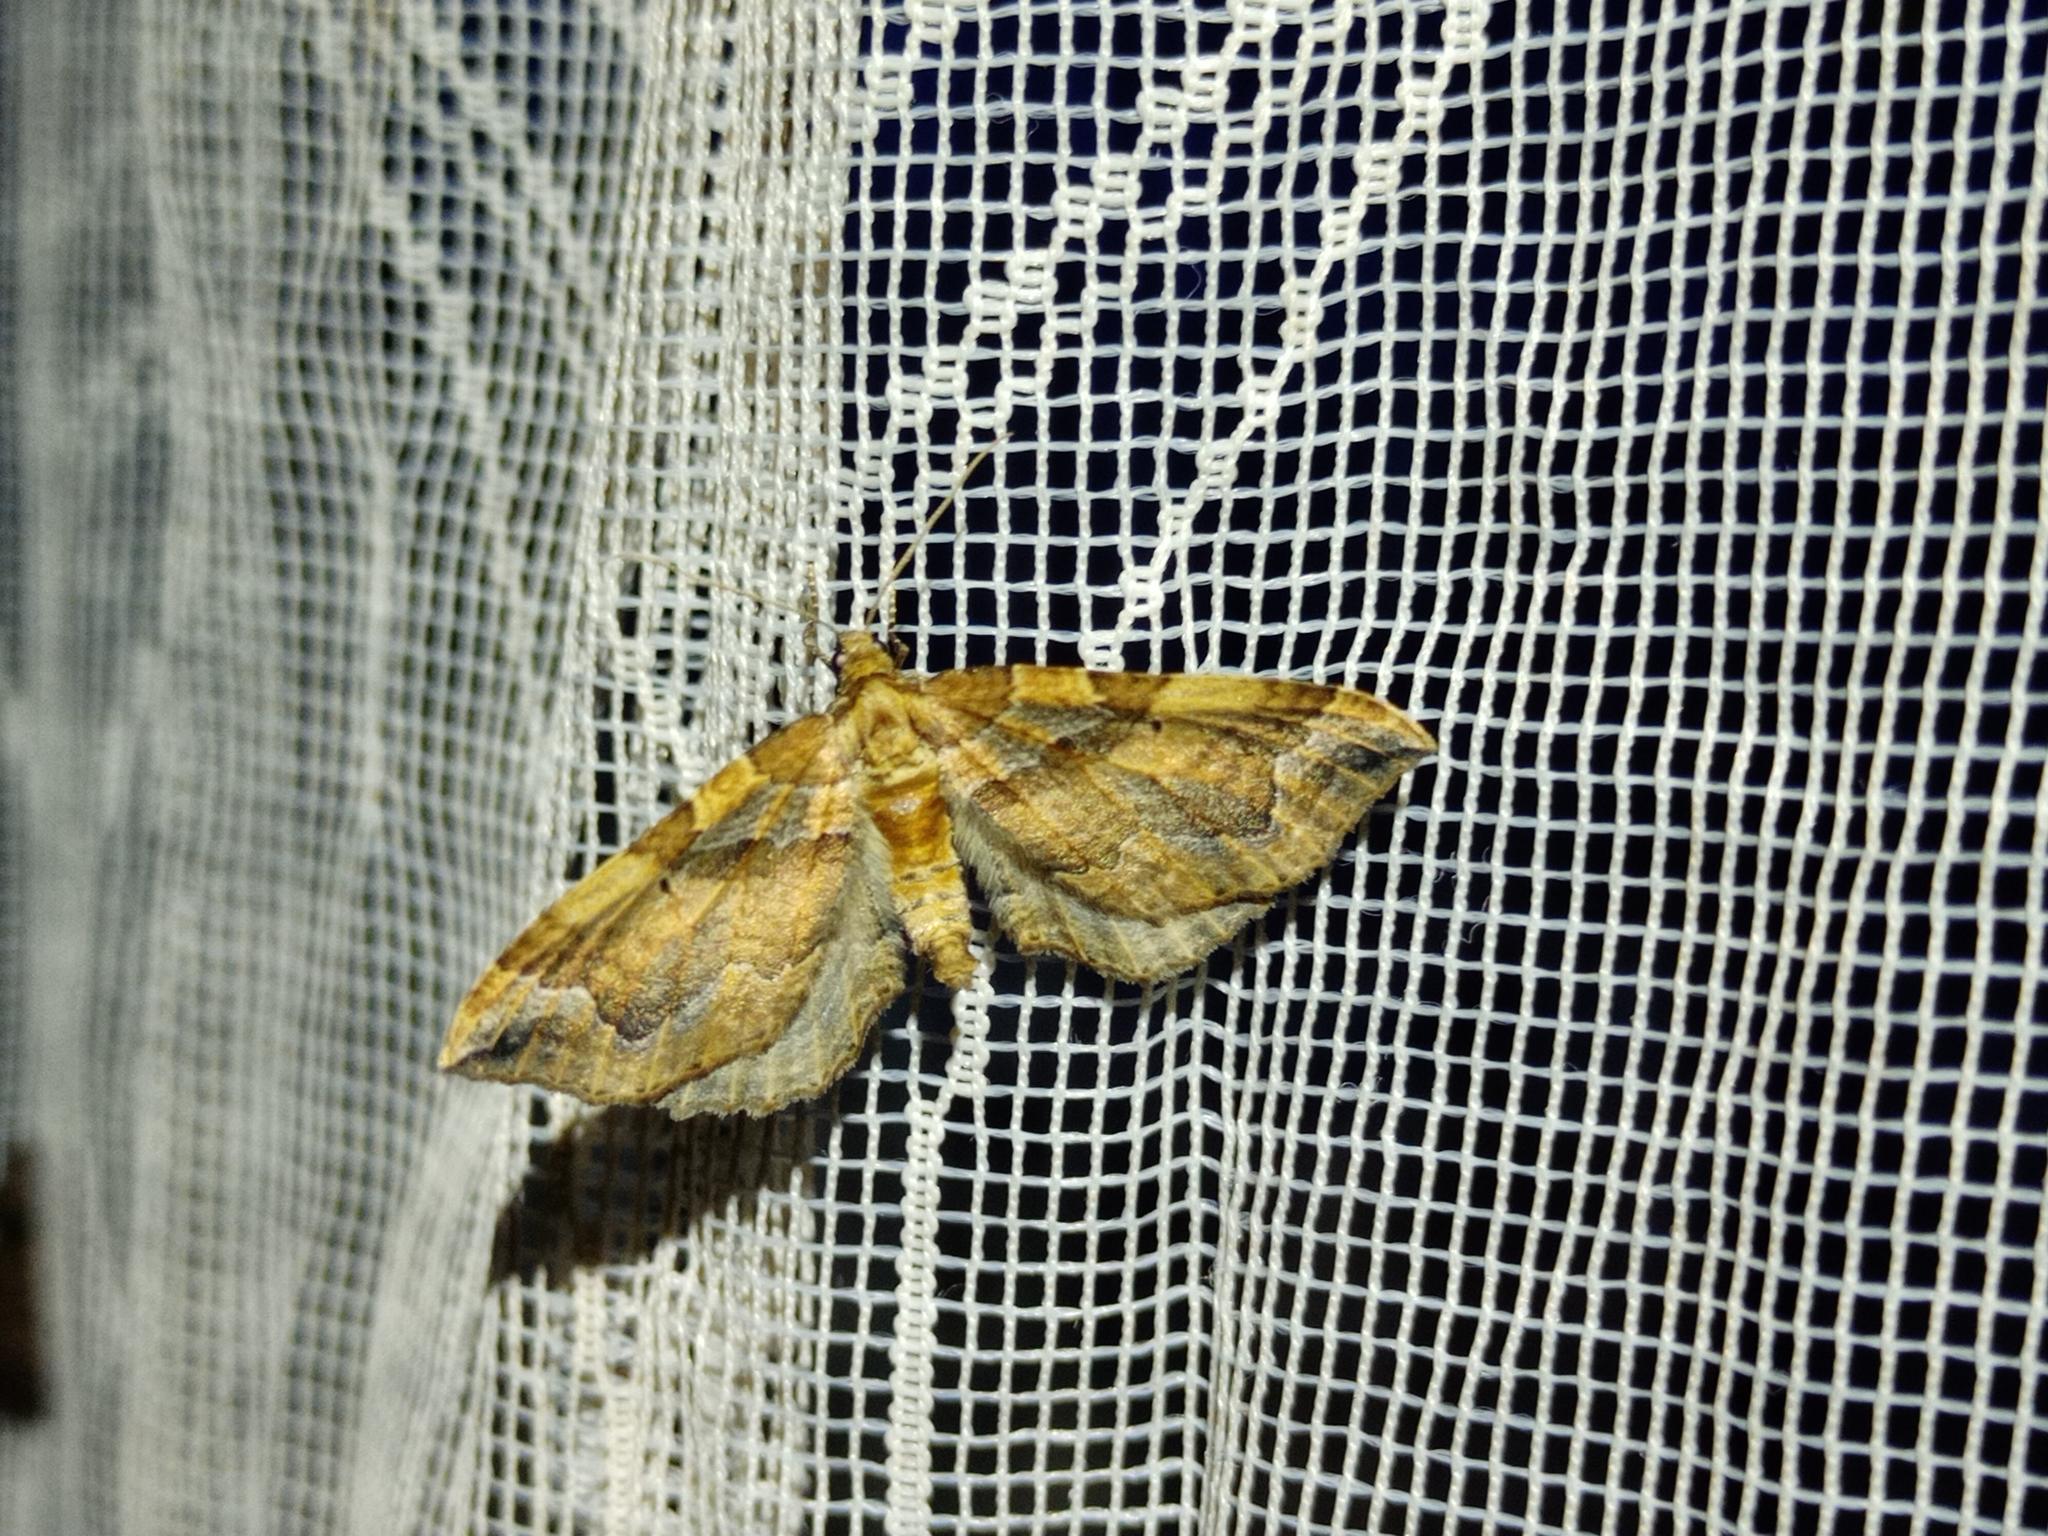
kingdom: Animalia
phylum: Arthropoda
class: Insecta
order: Lepidoptera
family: Geometridae
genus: Pelurga
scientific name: Pelurga comitata
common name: Dark spinach
